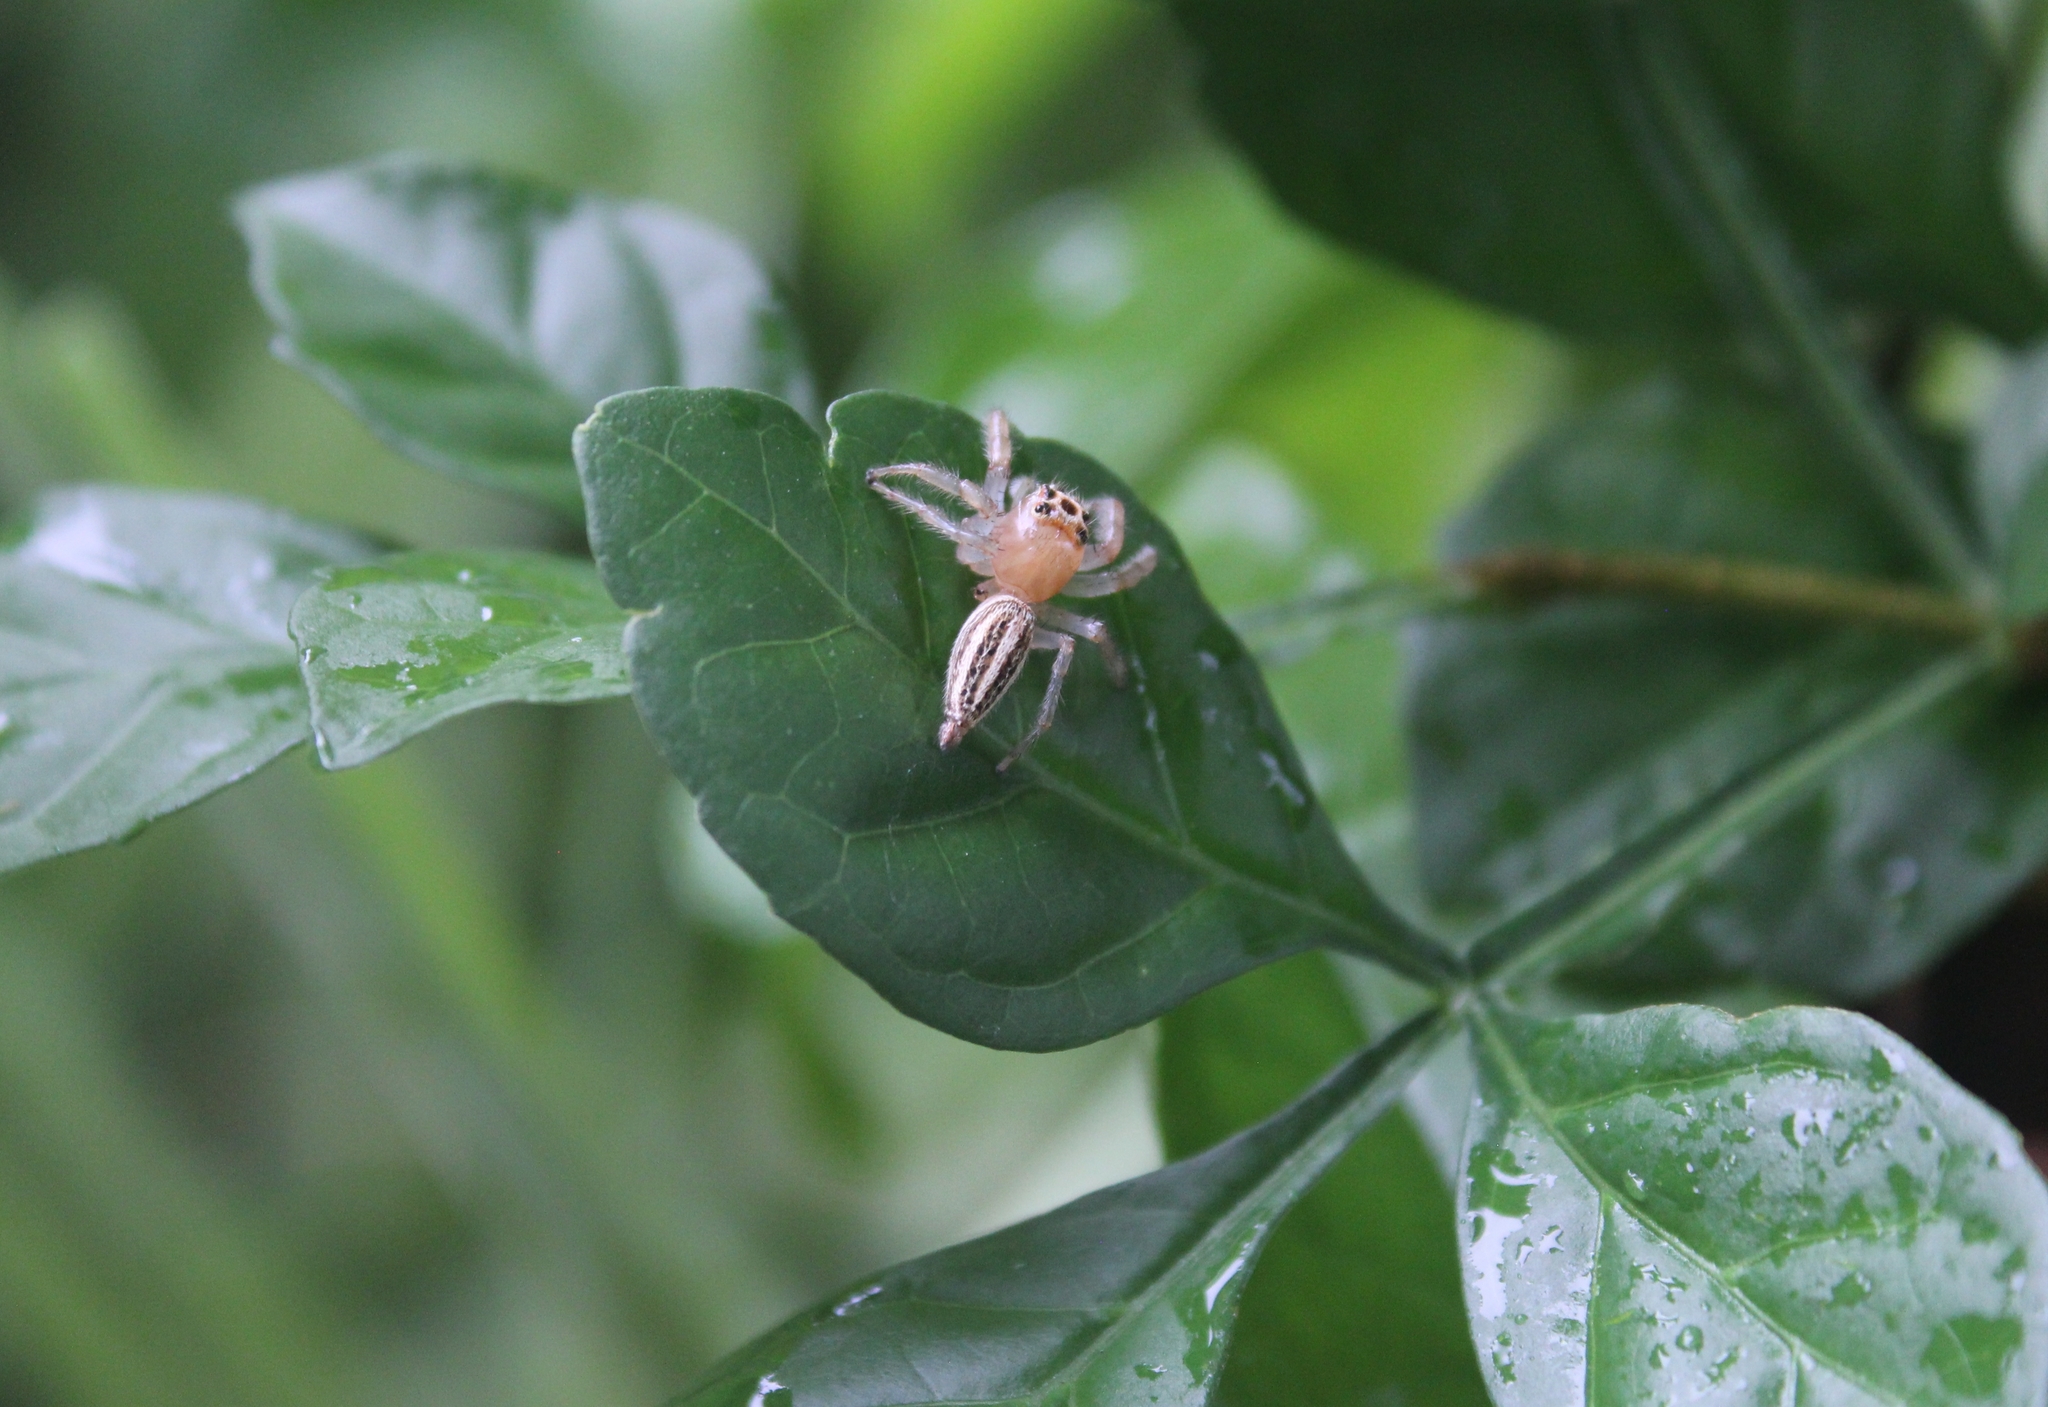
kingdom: Animalia
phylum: Arthropoda
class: Arachnida
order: Araneae
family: Salticidae
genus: Colonus
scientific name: Colonus sylvanus
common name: Jumping spiders
